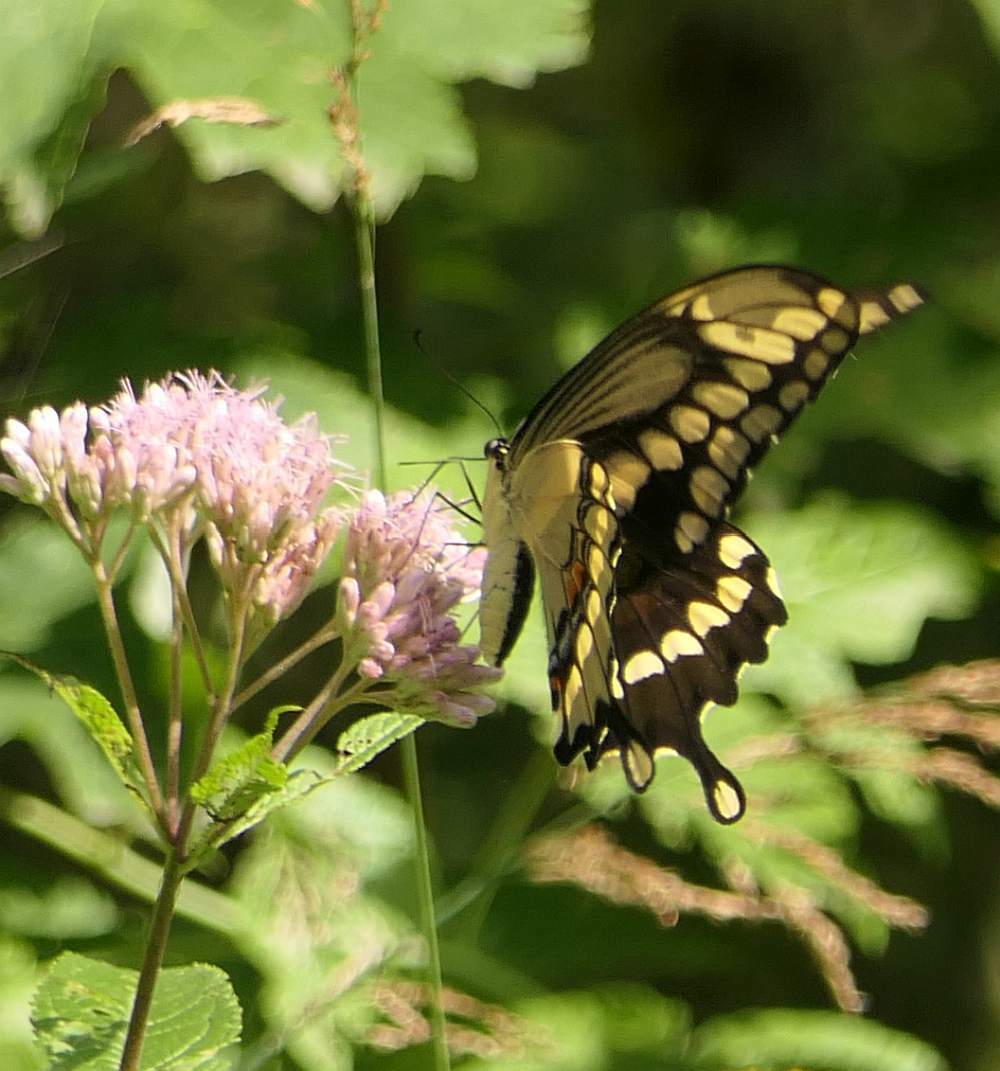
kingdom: Animalia
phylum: Arthropoda
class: Insecta
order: Lepidoptera
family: Papilionidae
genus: Papilio
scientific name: Papilio cresphontes
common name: Giant swallowtail
